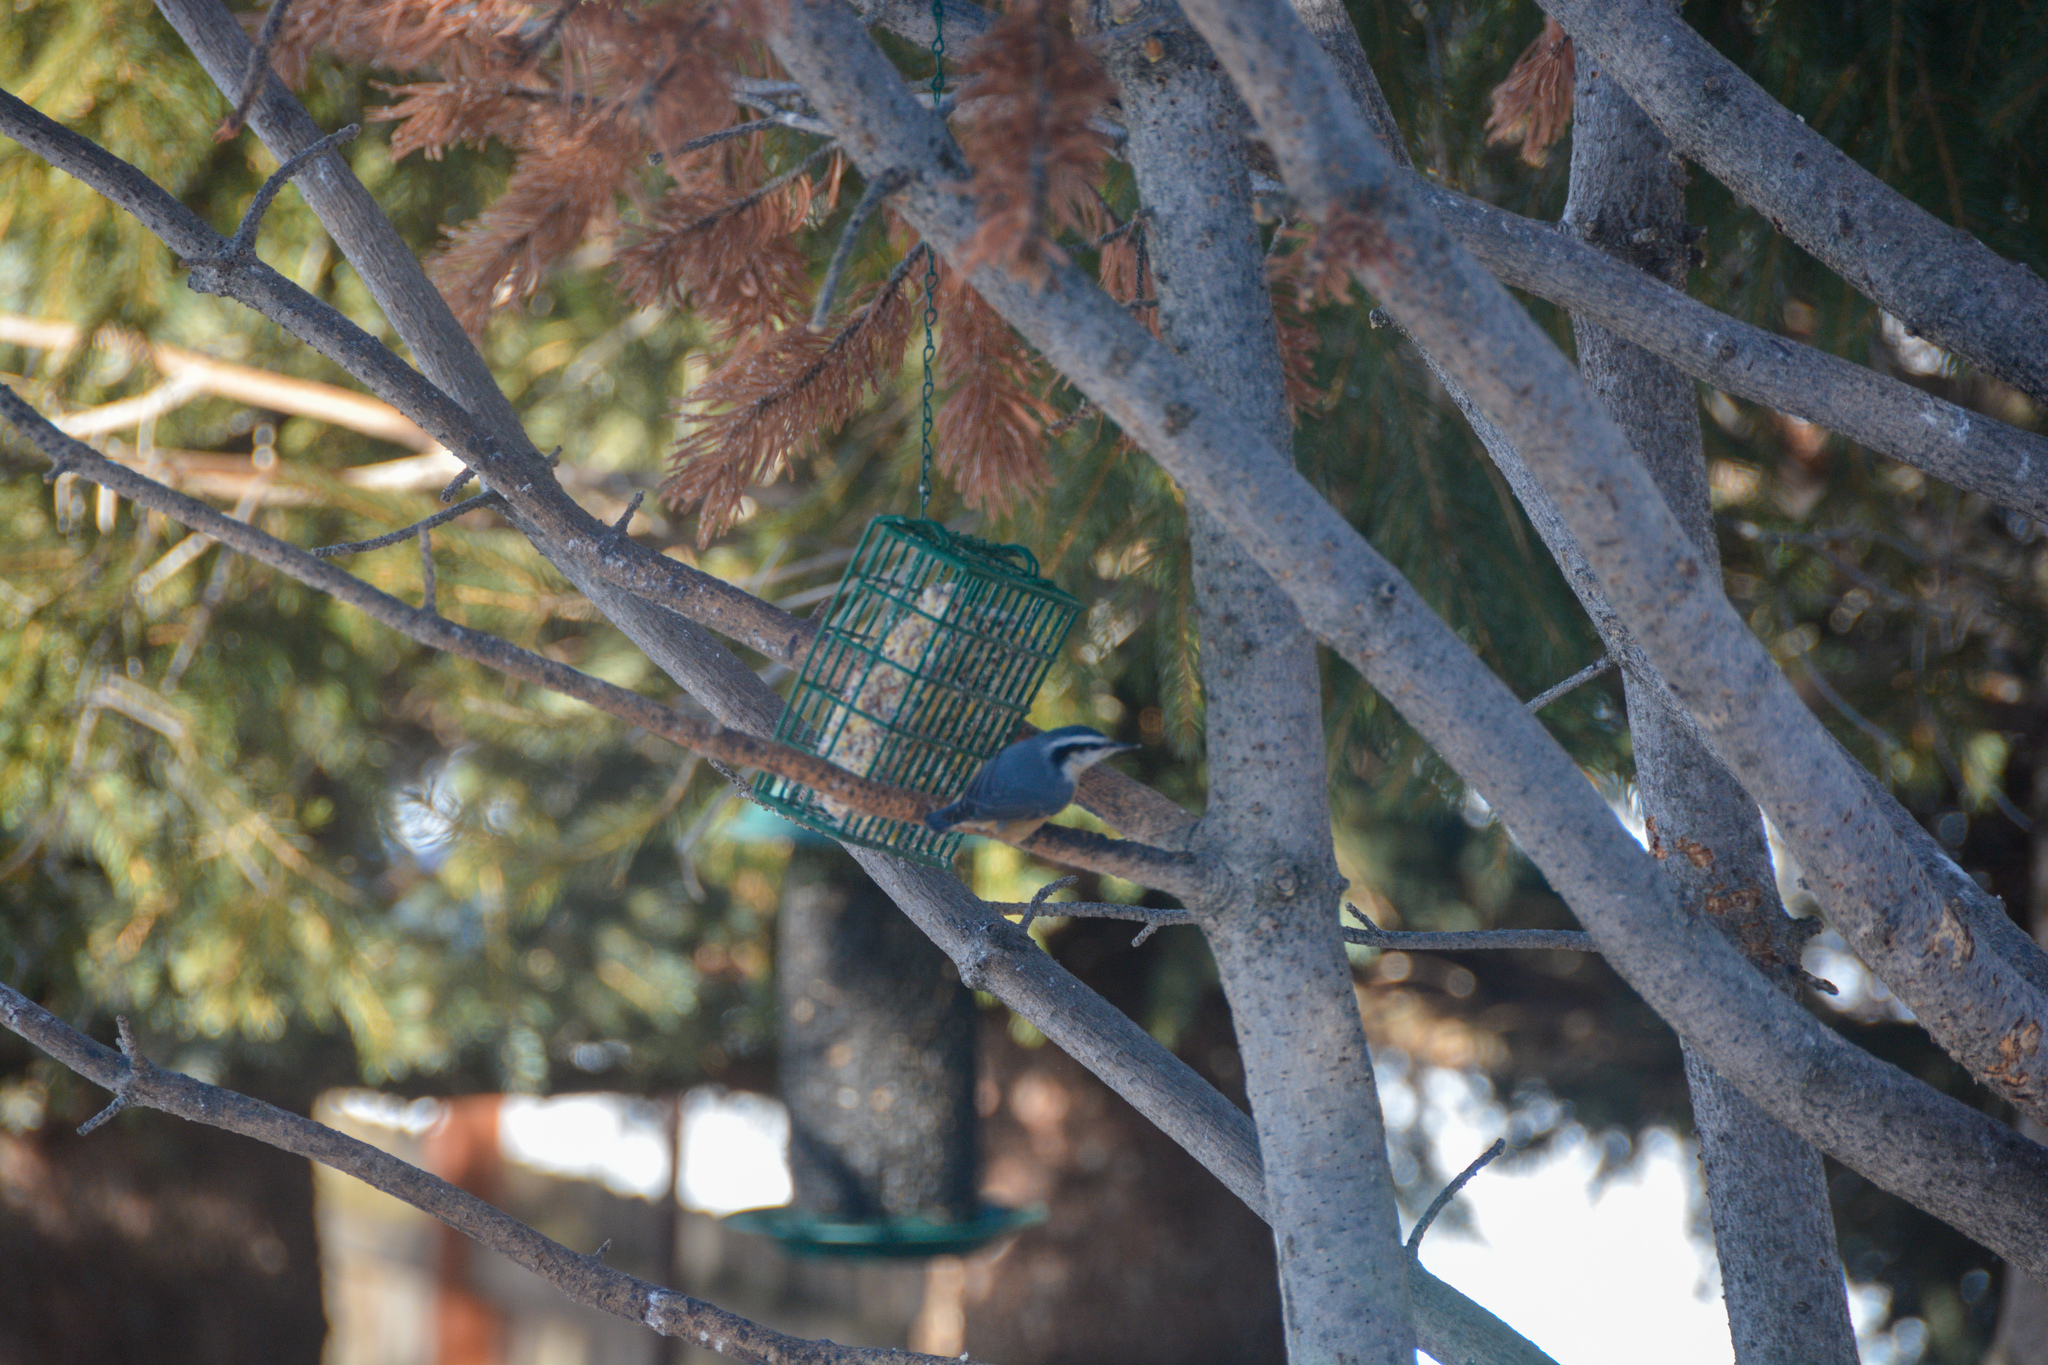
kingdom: Animalia
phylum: Chordata
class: Aves
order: Passeriformes
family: Sittidae
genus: Sitta
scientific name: Sitta canadensis
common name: Red-breasted nuthatch
